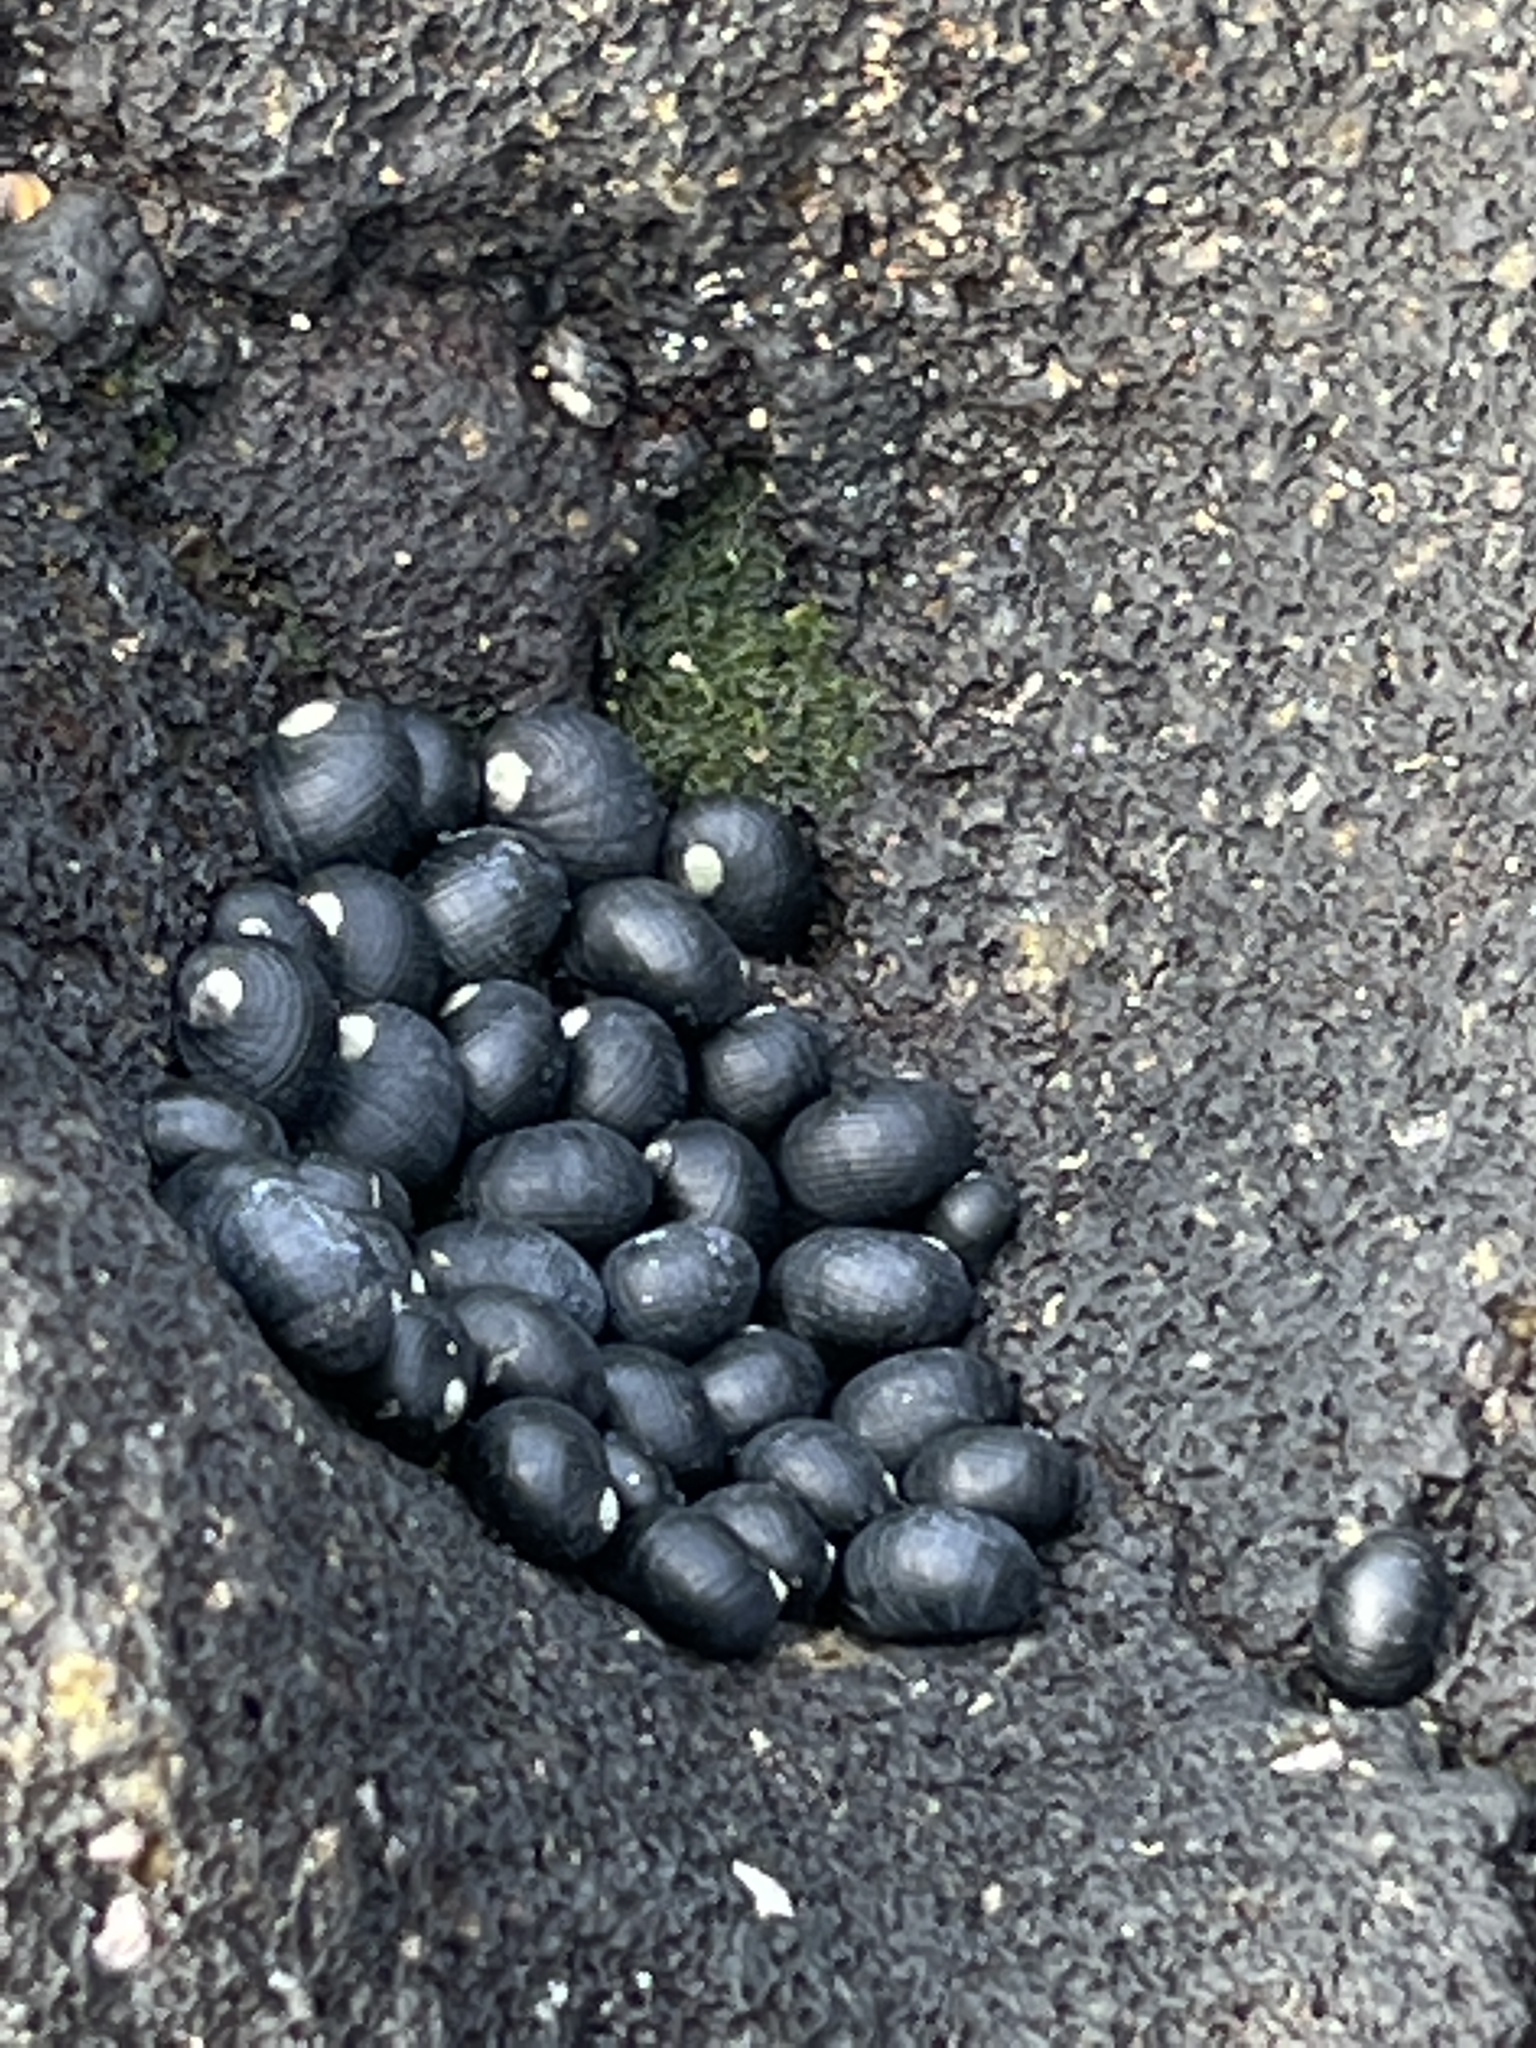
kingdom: Animalia
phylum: Mollusca
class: Gastropoda
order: Cycloneritida
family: Neritidae
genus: Nerita
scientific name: Nerita picea
